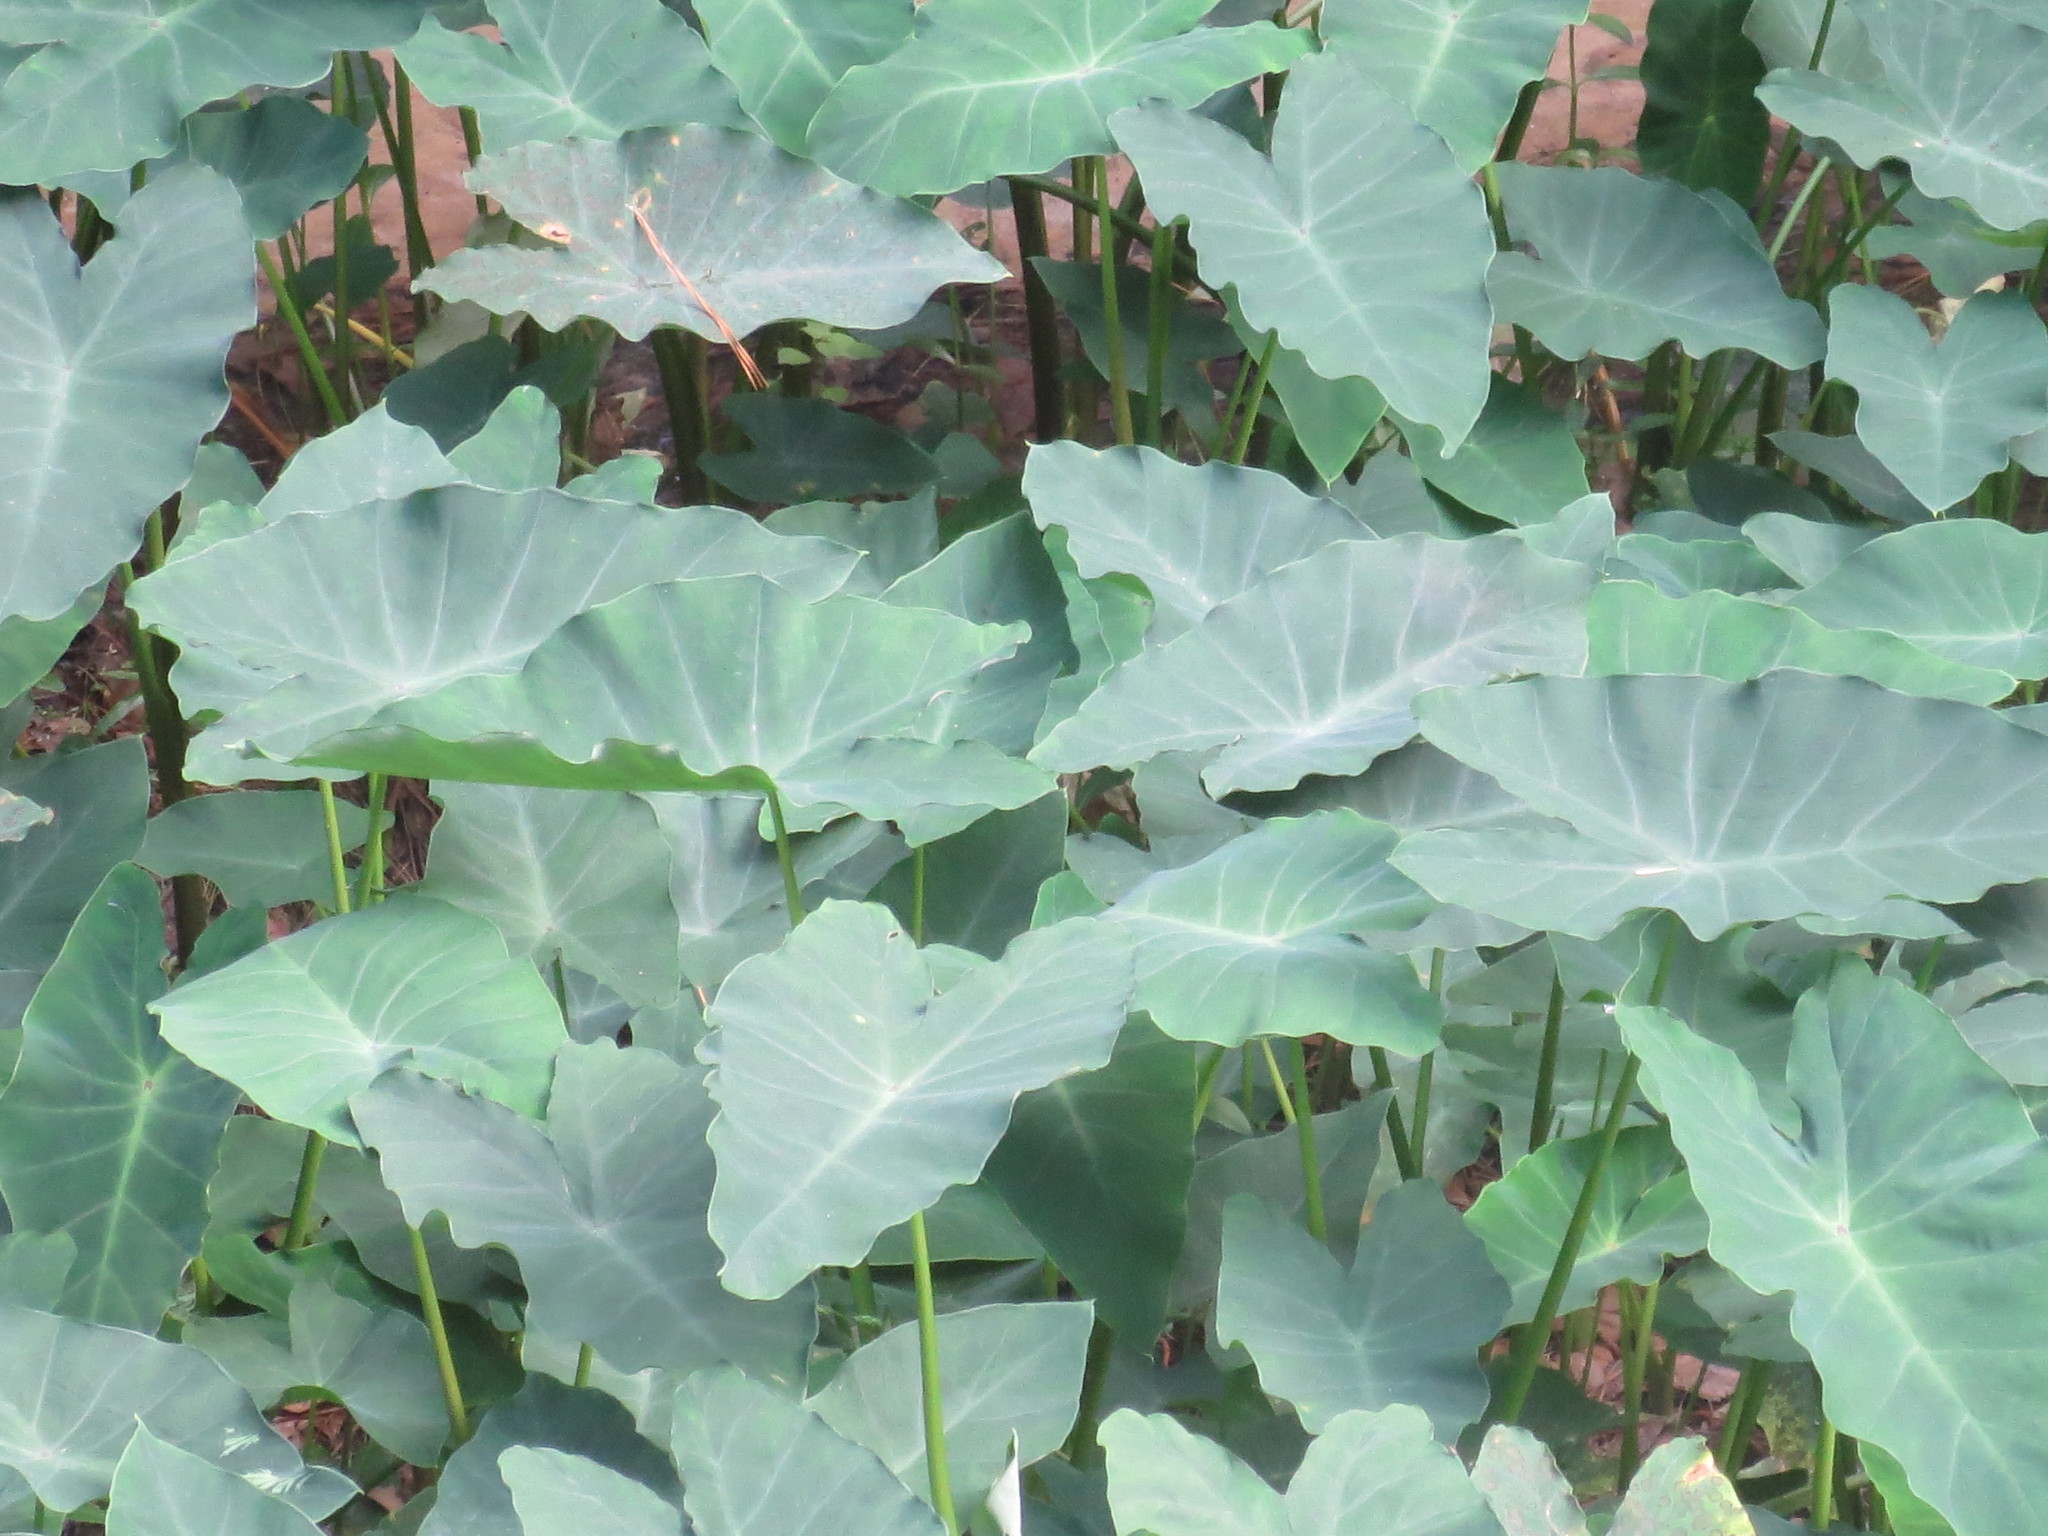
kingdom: Plantae
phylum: Tracheophyta
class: Liliopsida
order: Alismatales
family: Araceae
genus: Colocasia
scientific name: Colocasia esculenta
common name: Taro
